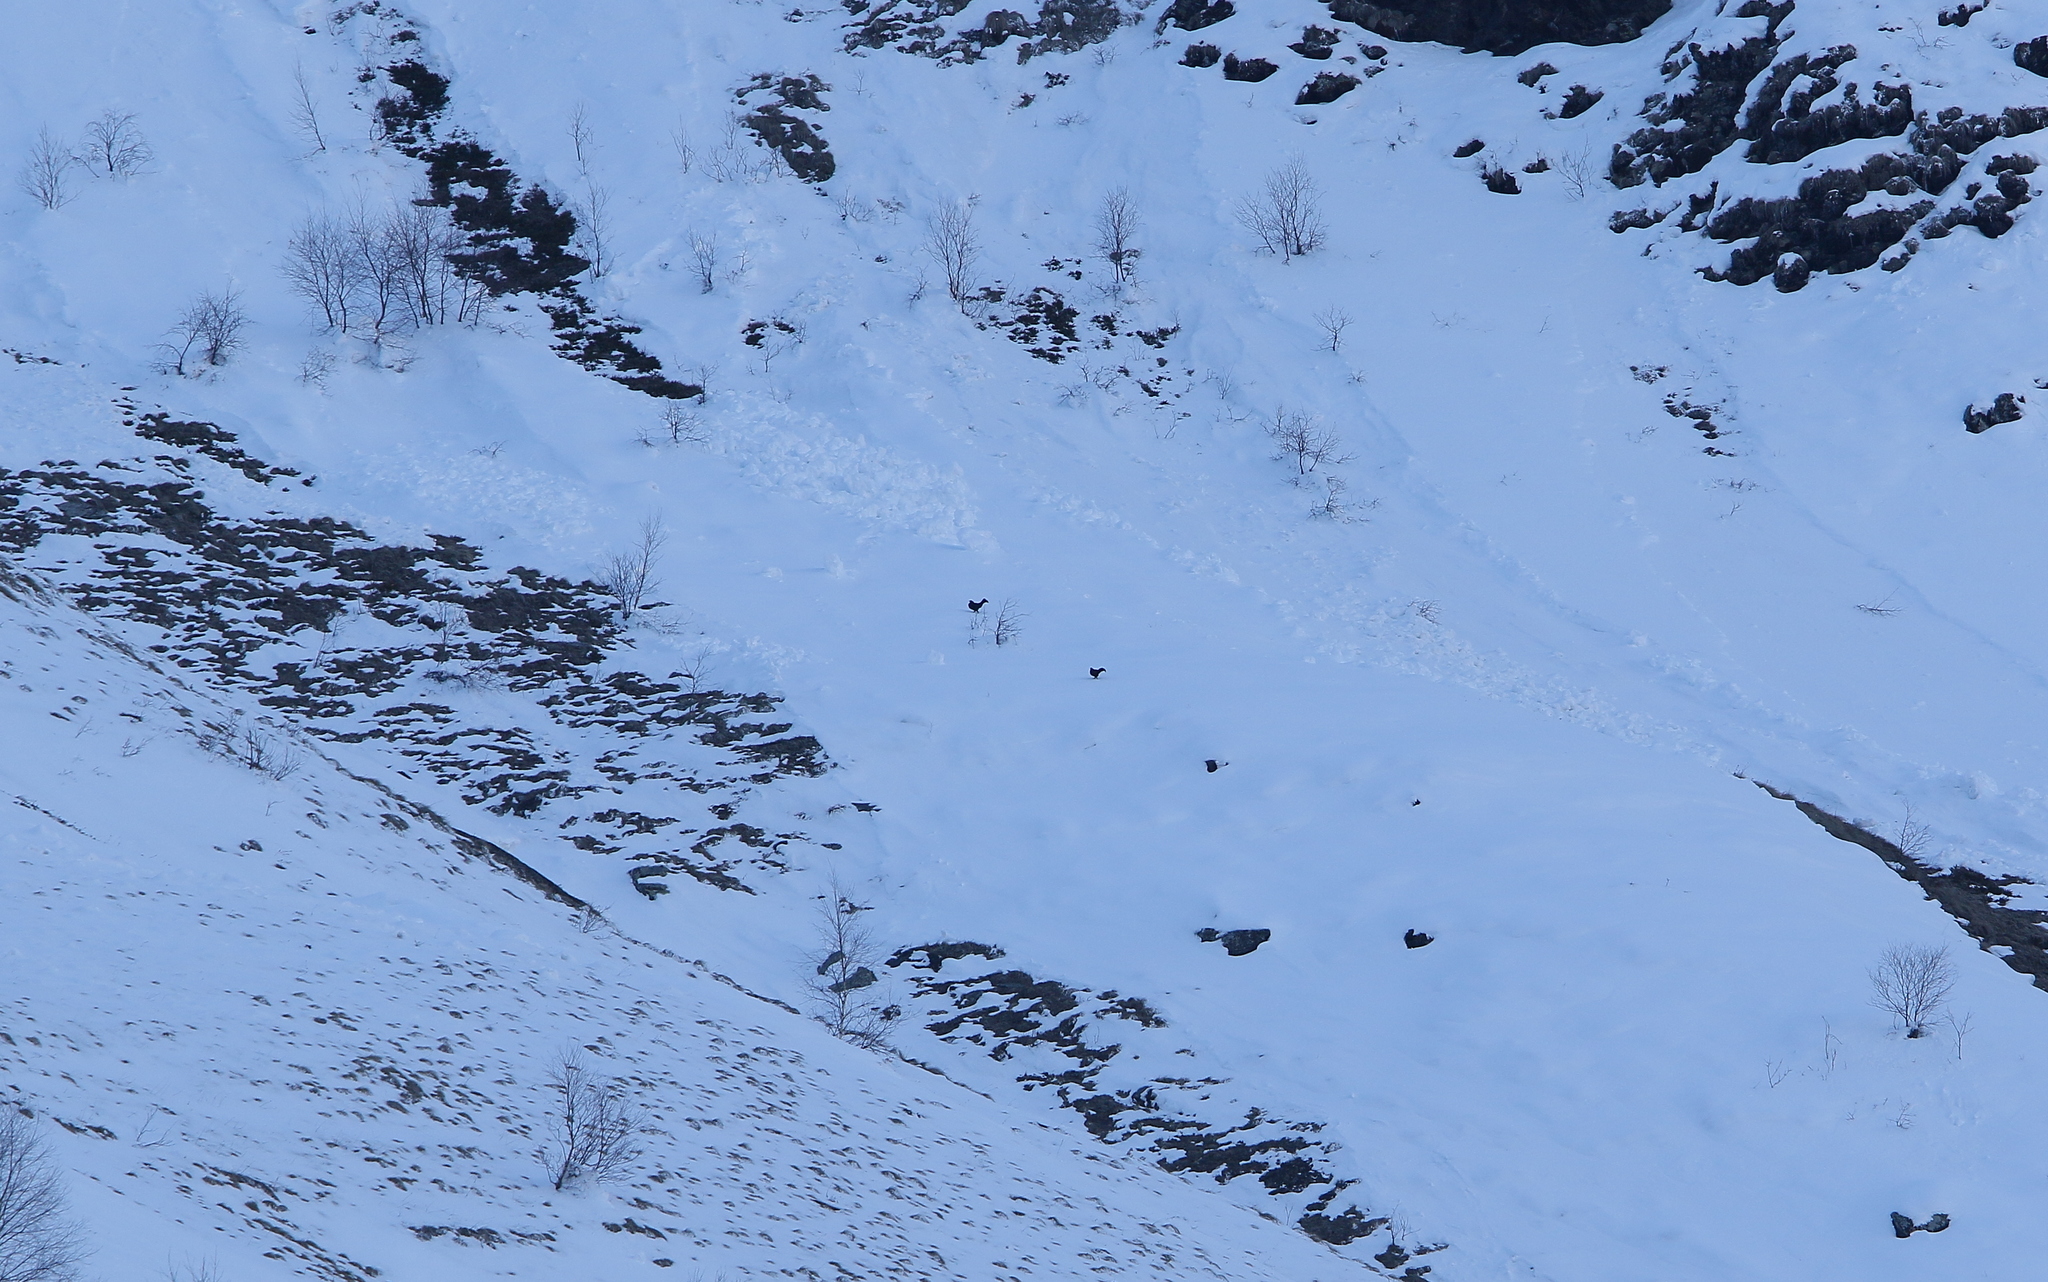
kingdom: Animalia
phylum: Chordata
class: Aves
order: Galliformes
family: Phasianidae
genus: Lyrurus
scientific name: Lyrurus mlokosiewiczi
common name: Caucasian grouse
